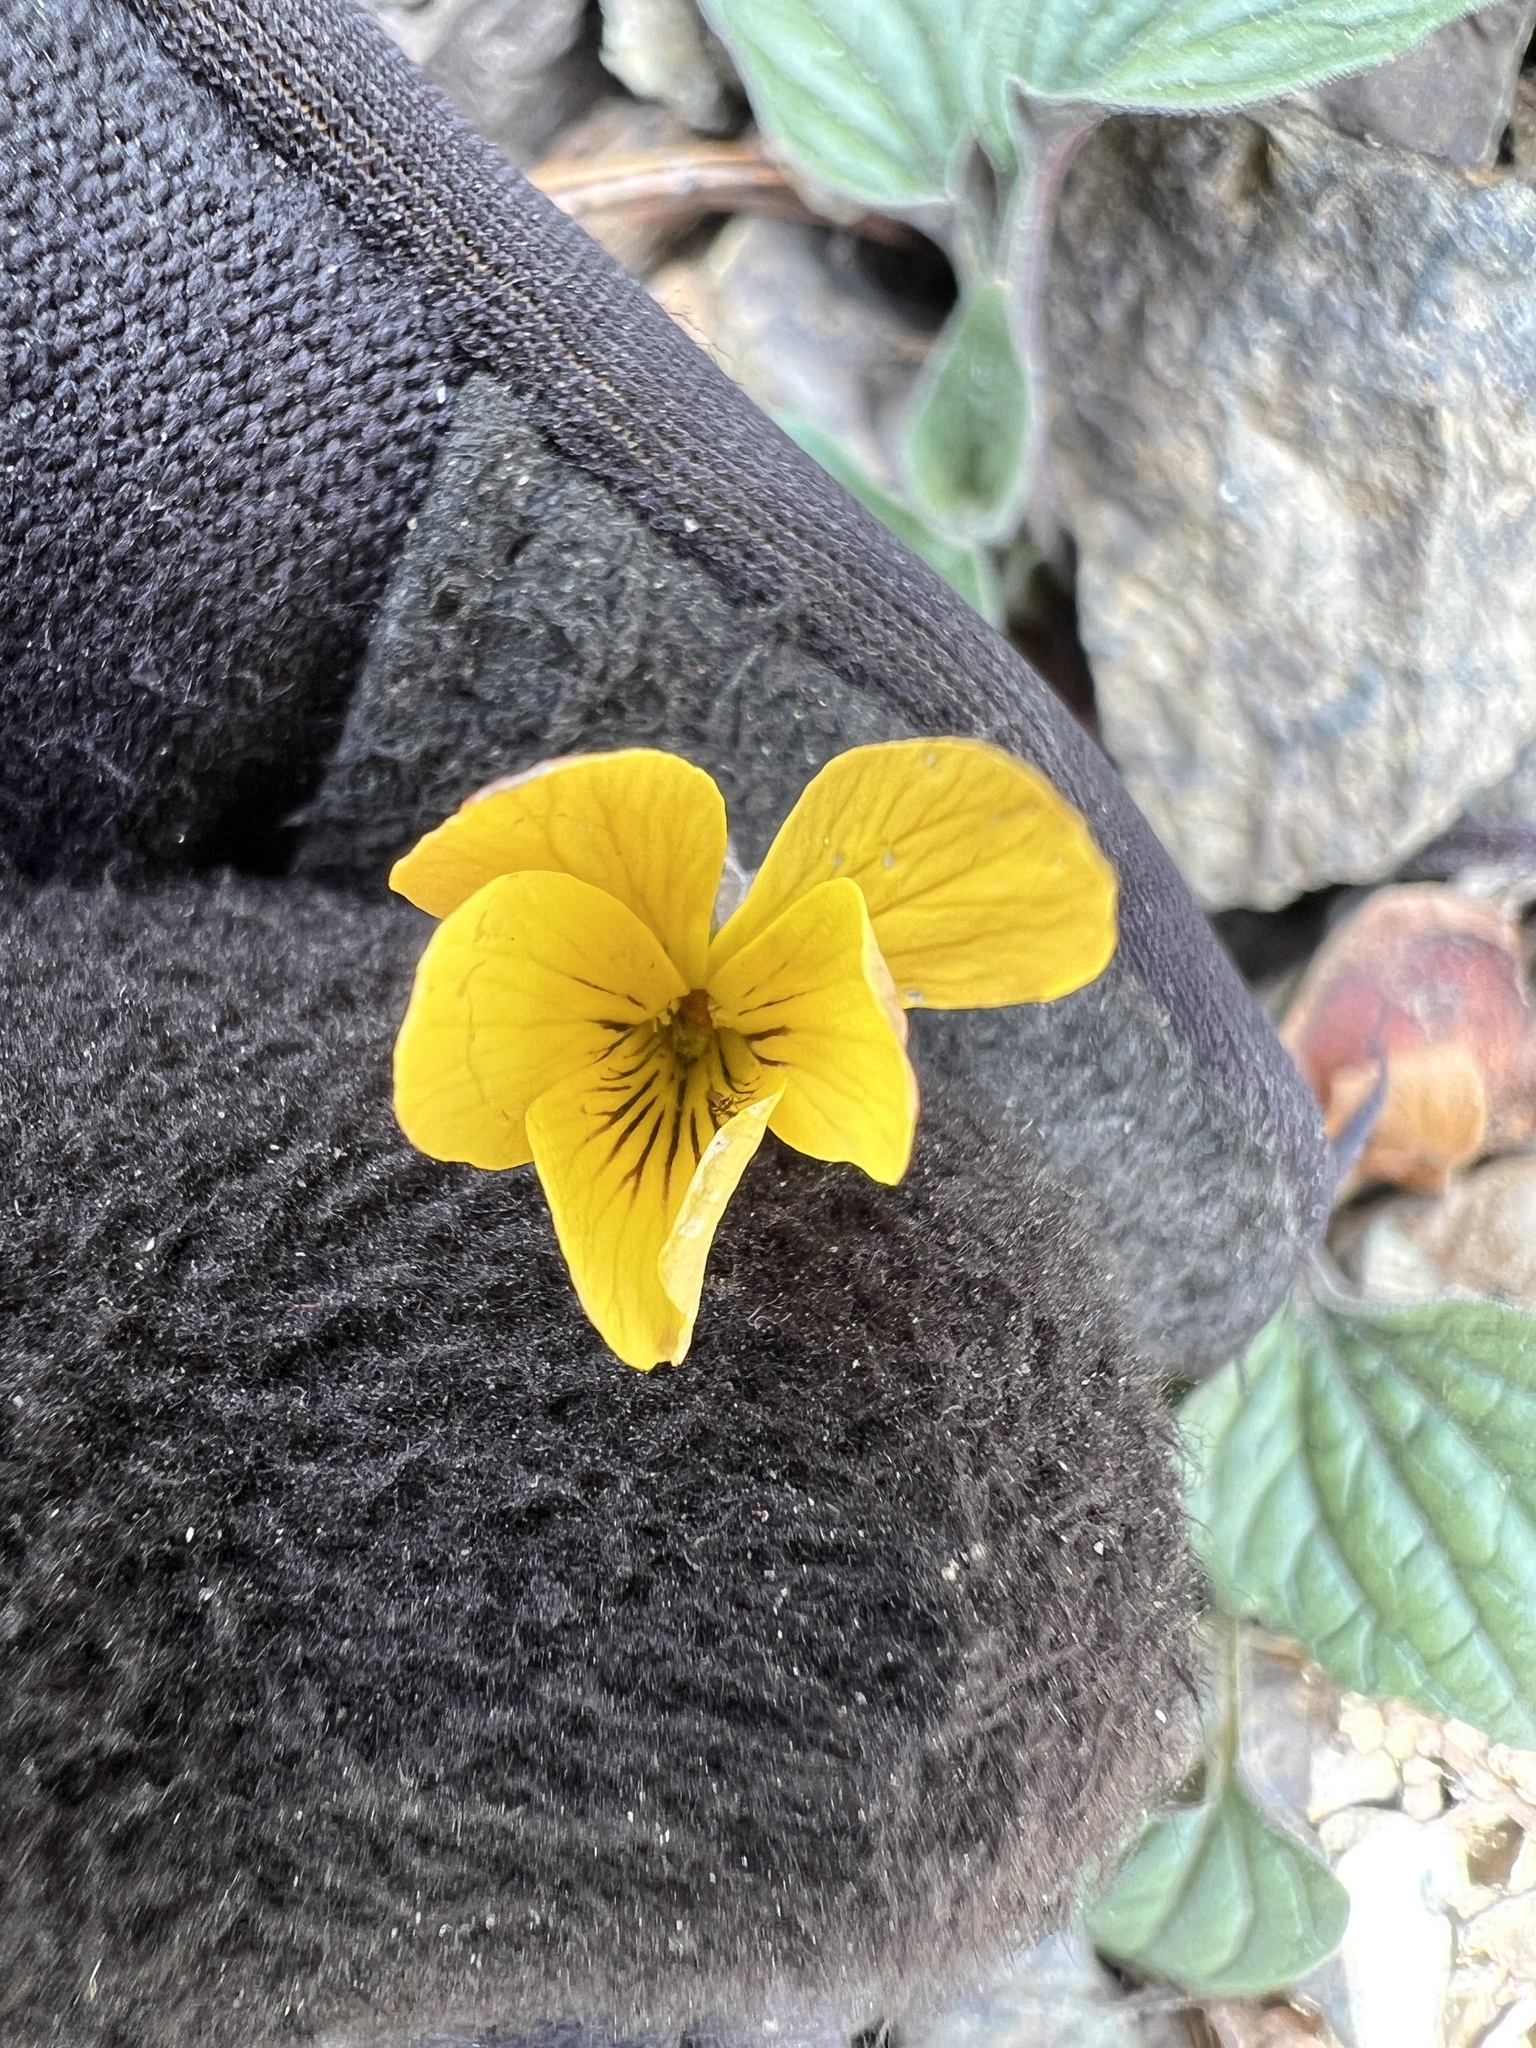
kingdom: Plantae
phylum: Tracheophyta
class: Magnoliopsida
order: Malpighiales
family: Violaceae
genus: Viola
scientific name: Viola purpurea
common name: Pine violet
